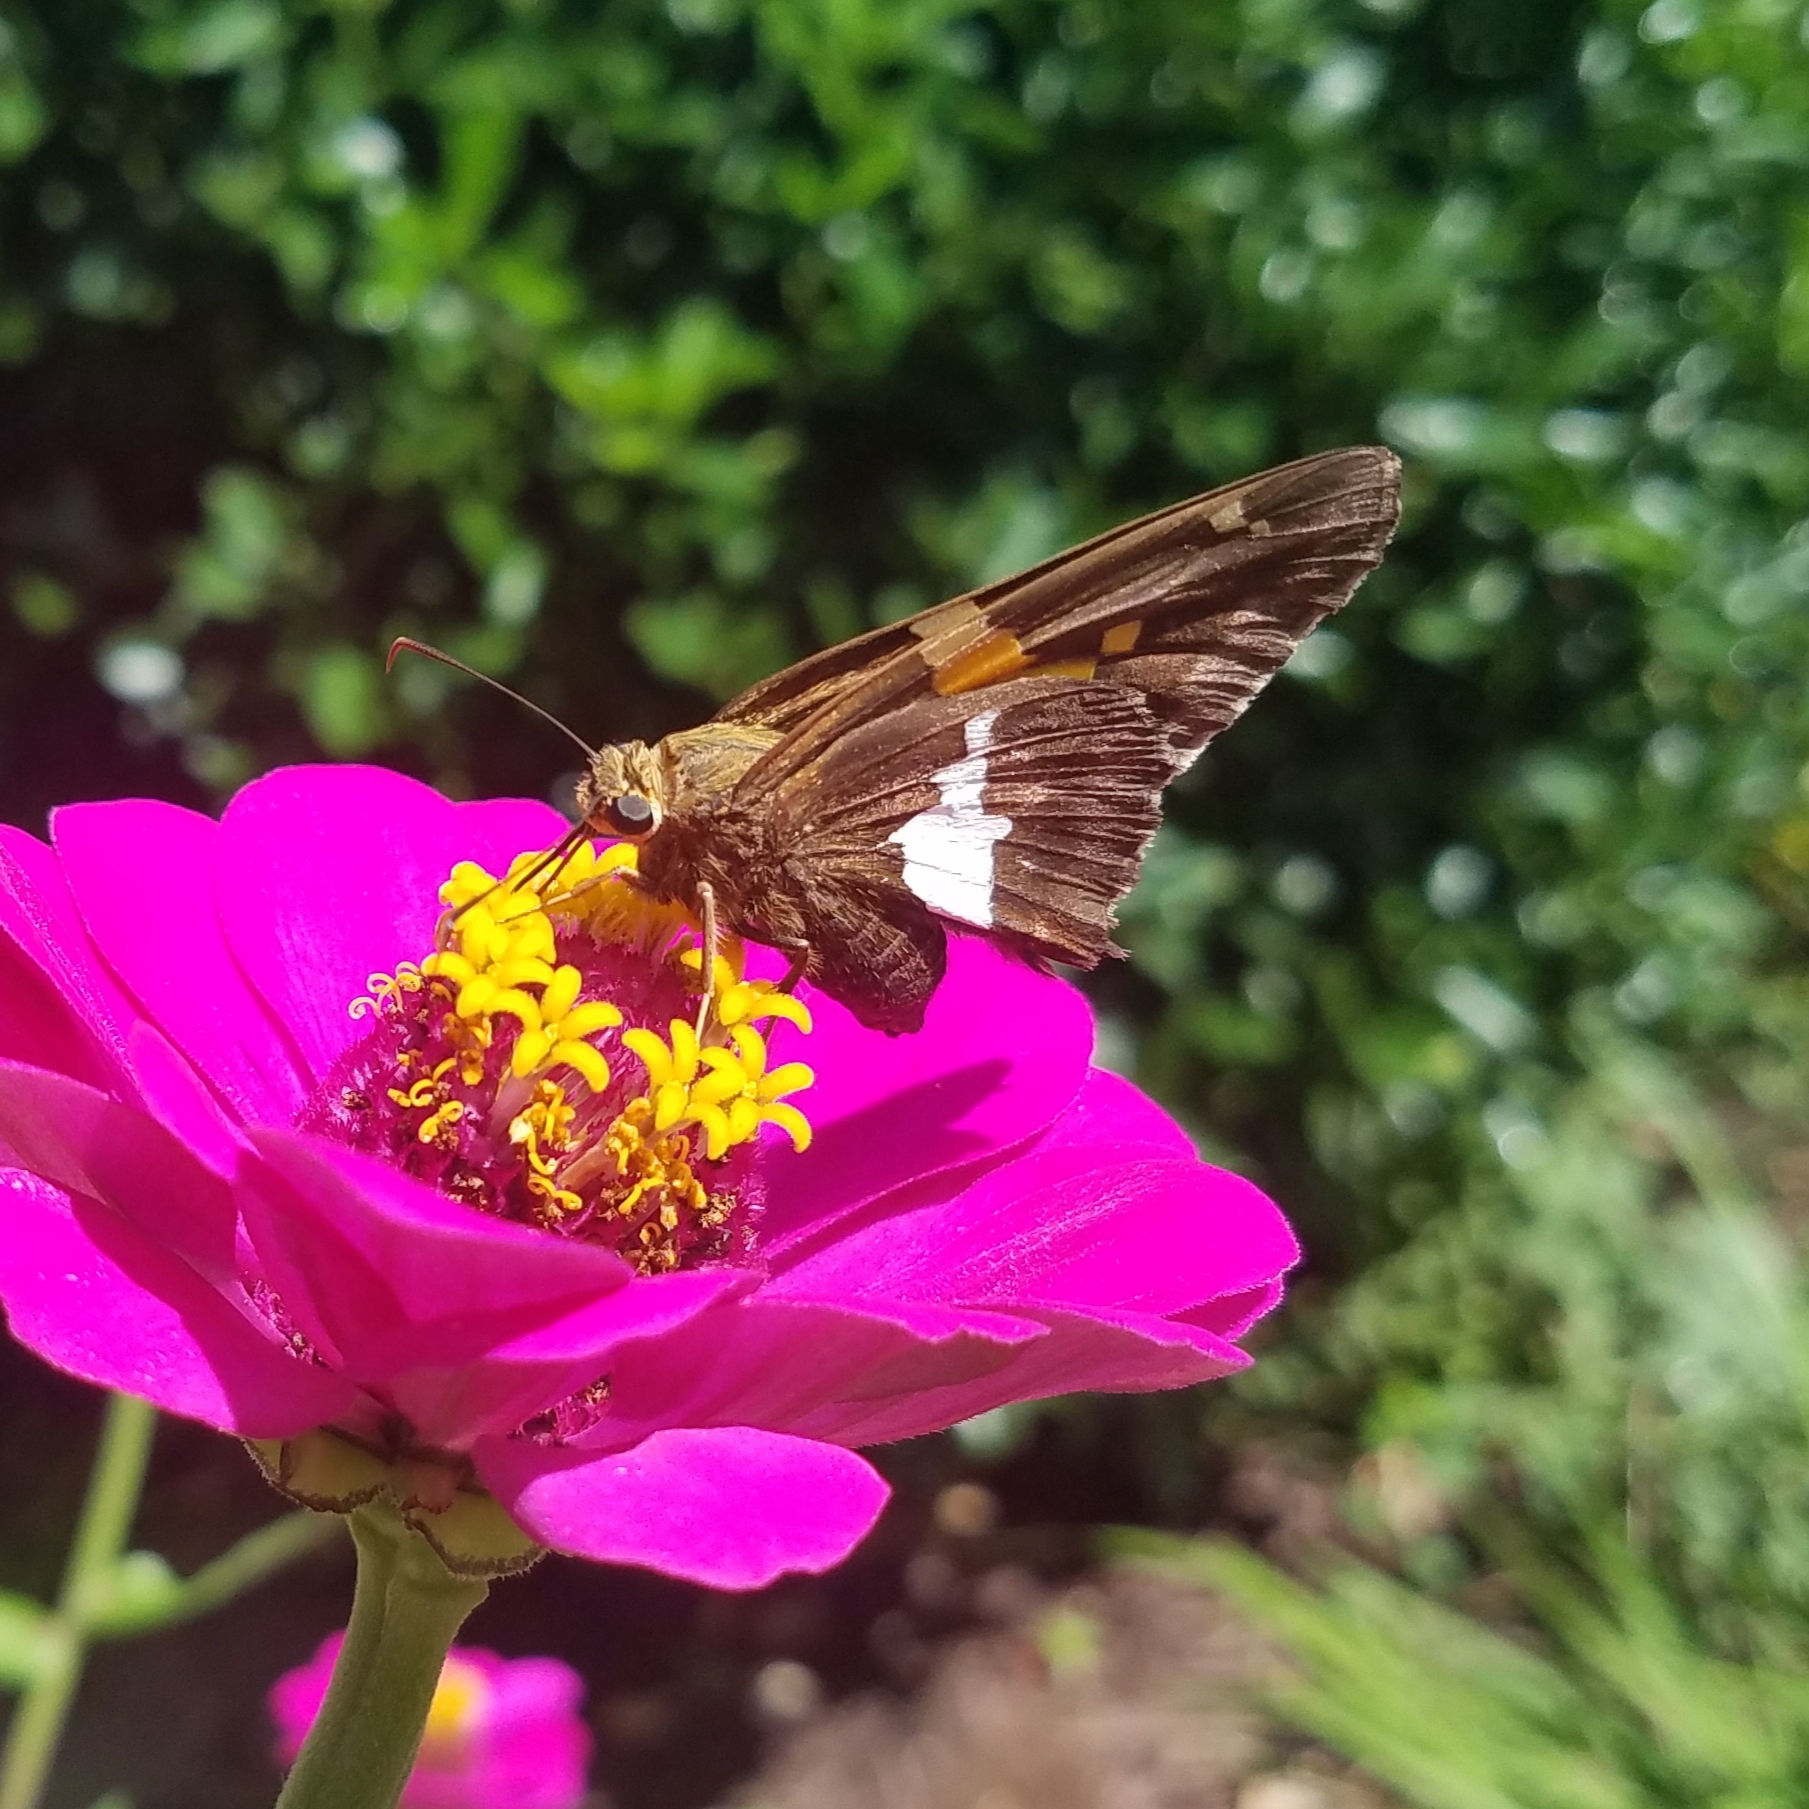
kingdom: Animalia
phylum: Arthropoda
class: Insecta
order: Lepidoptera
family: Hesperiidae
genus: Epargyreus
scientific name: Epargyreus clarus
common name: Silver-spotted skipper
